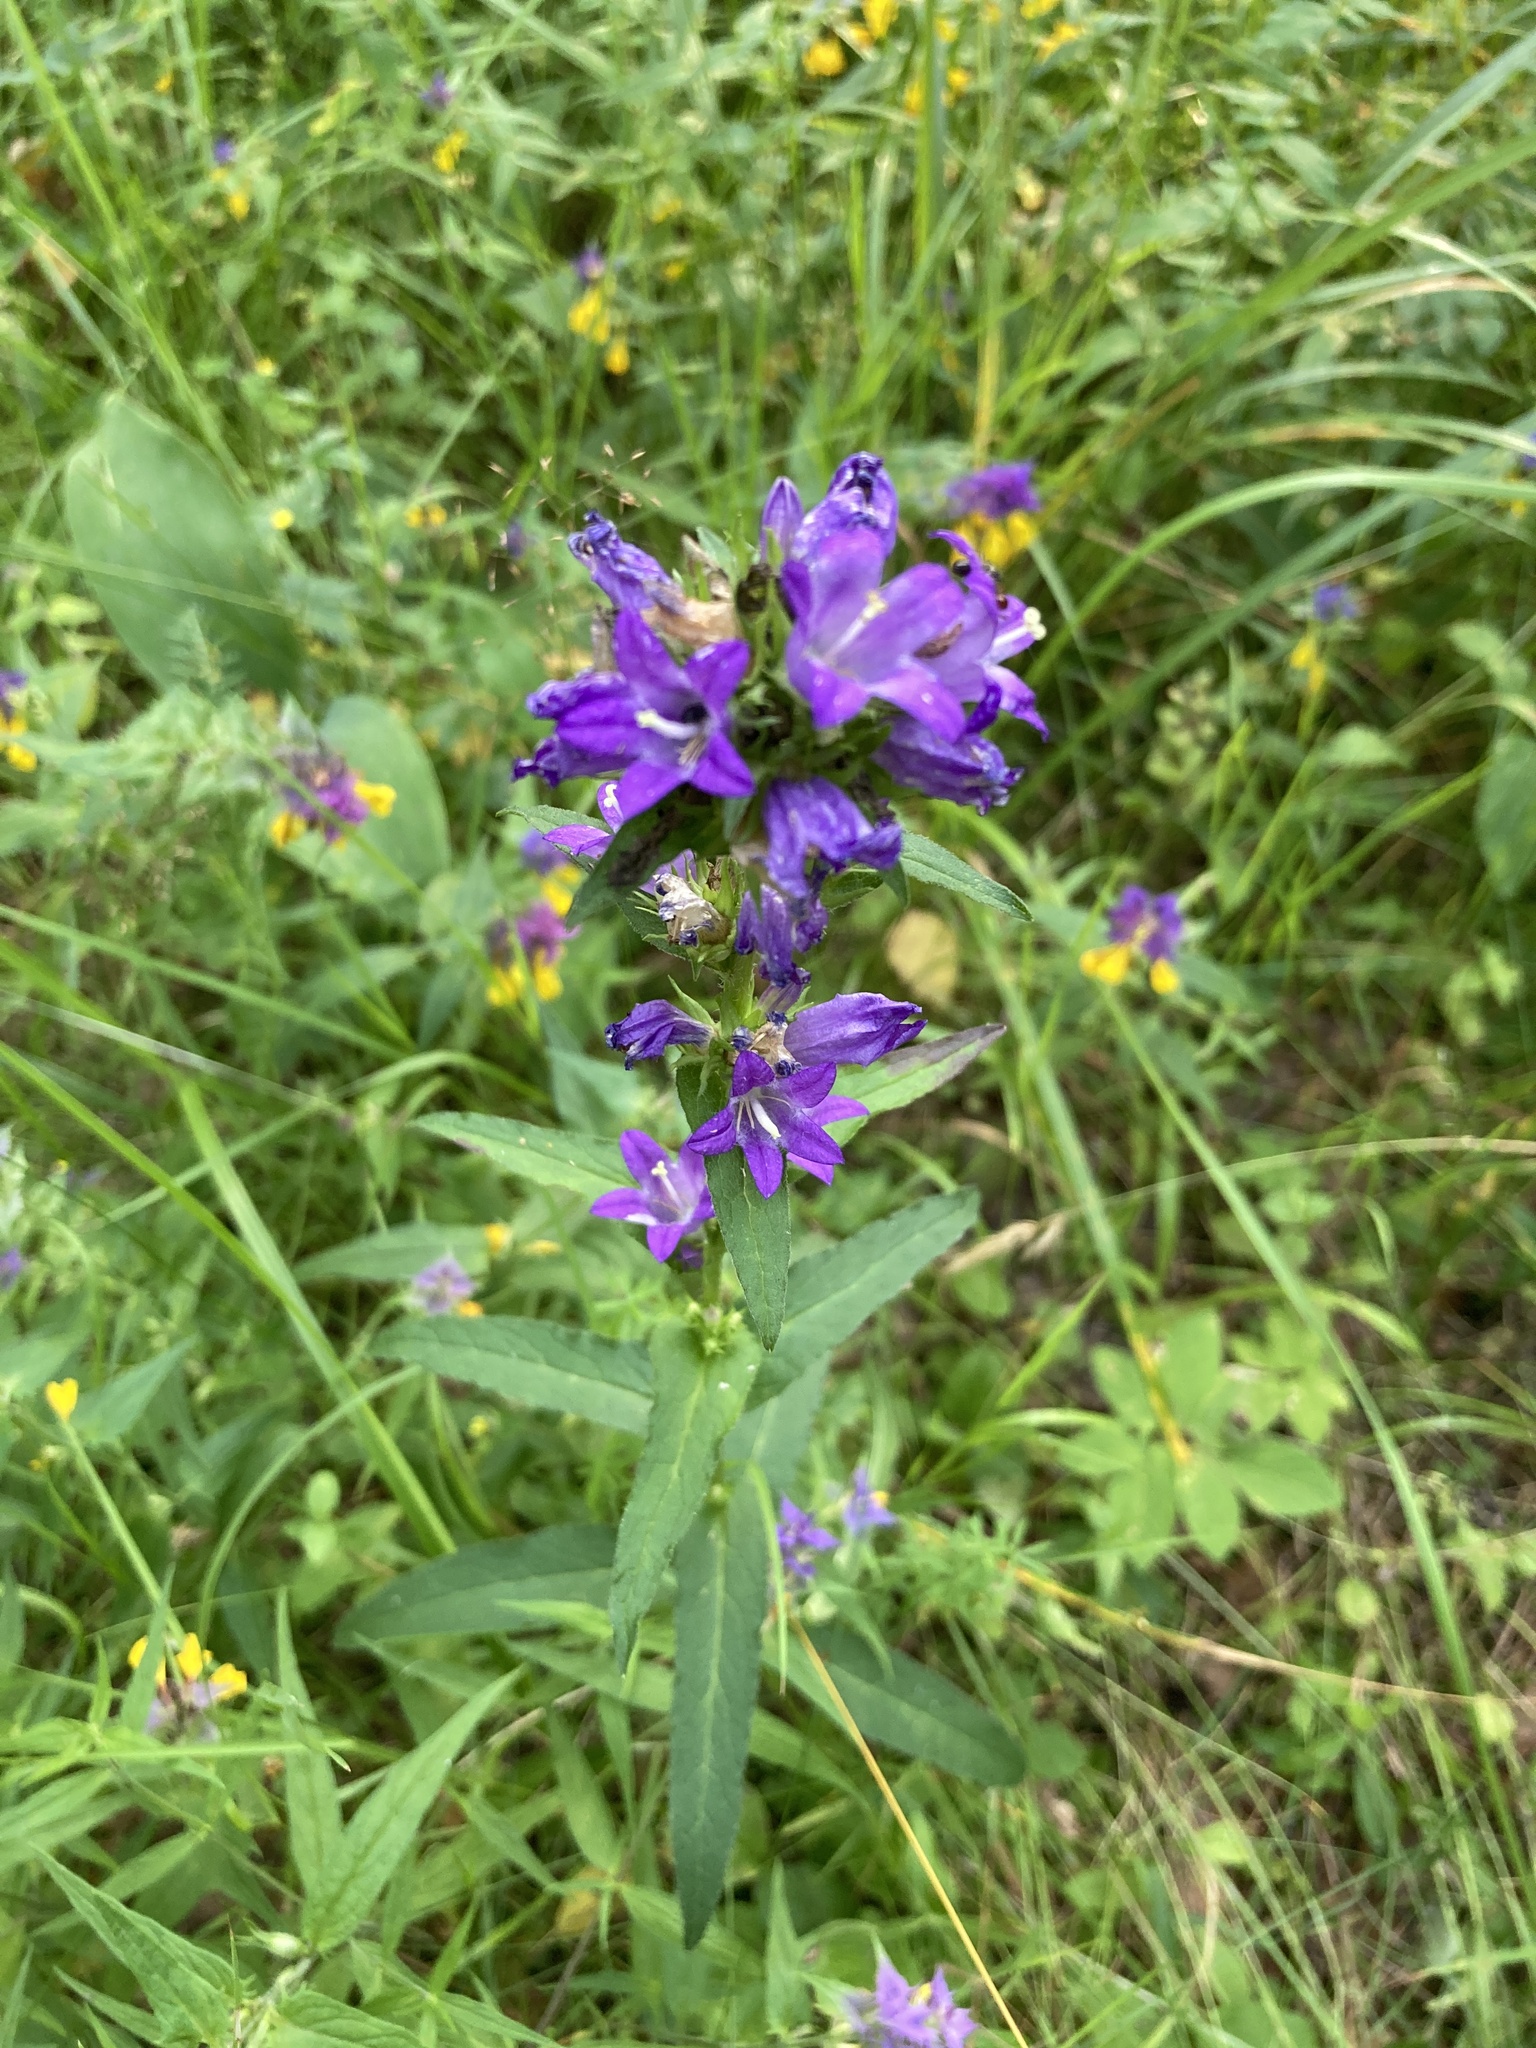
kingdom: Plantae
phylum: Tracheophyta
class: Magnoliopsida
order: Asterales
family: Campanulaceae
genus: Campanula
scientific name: Campanula glomerata
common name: Clustered bellflower
